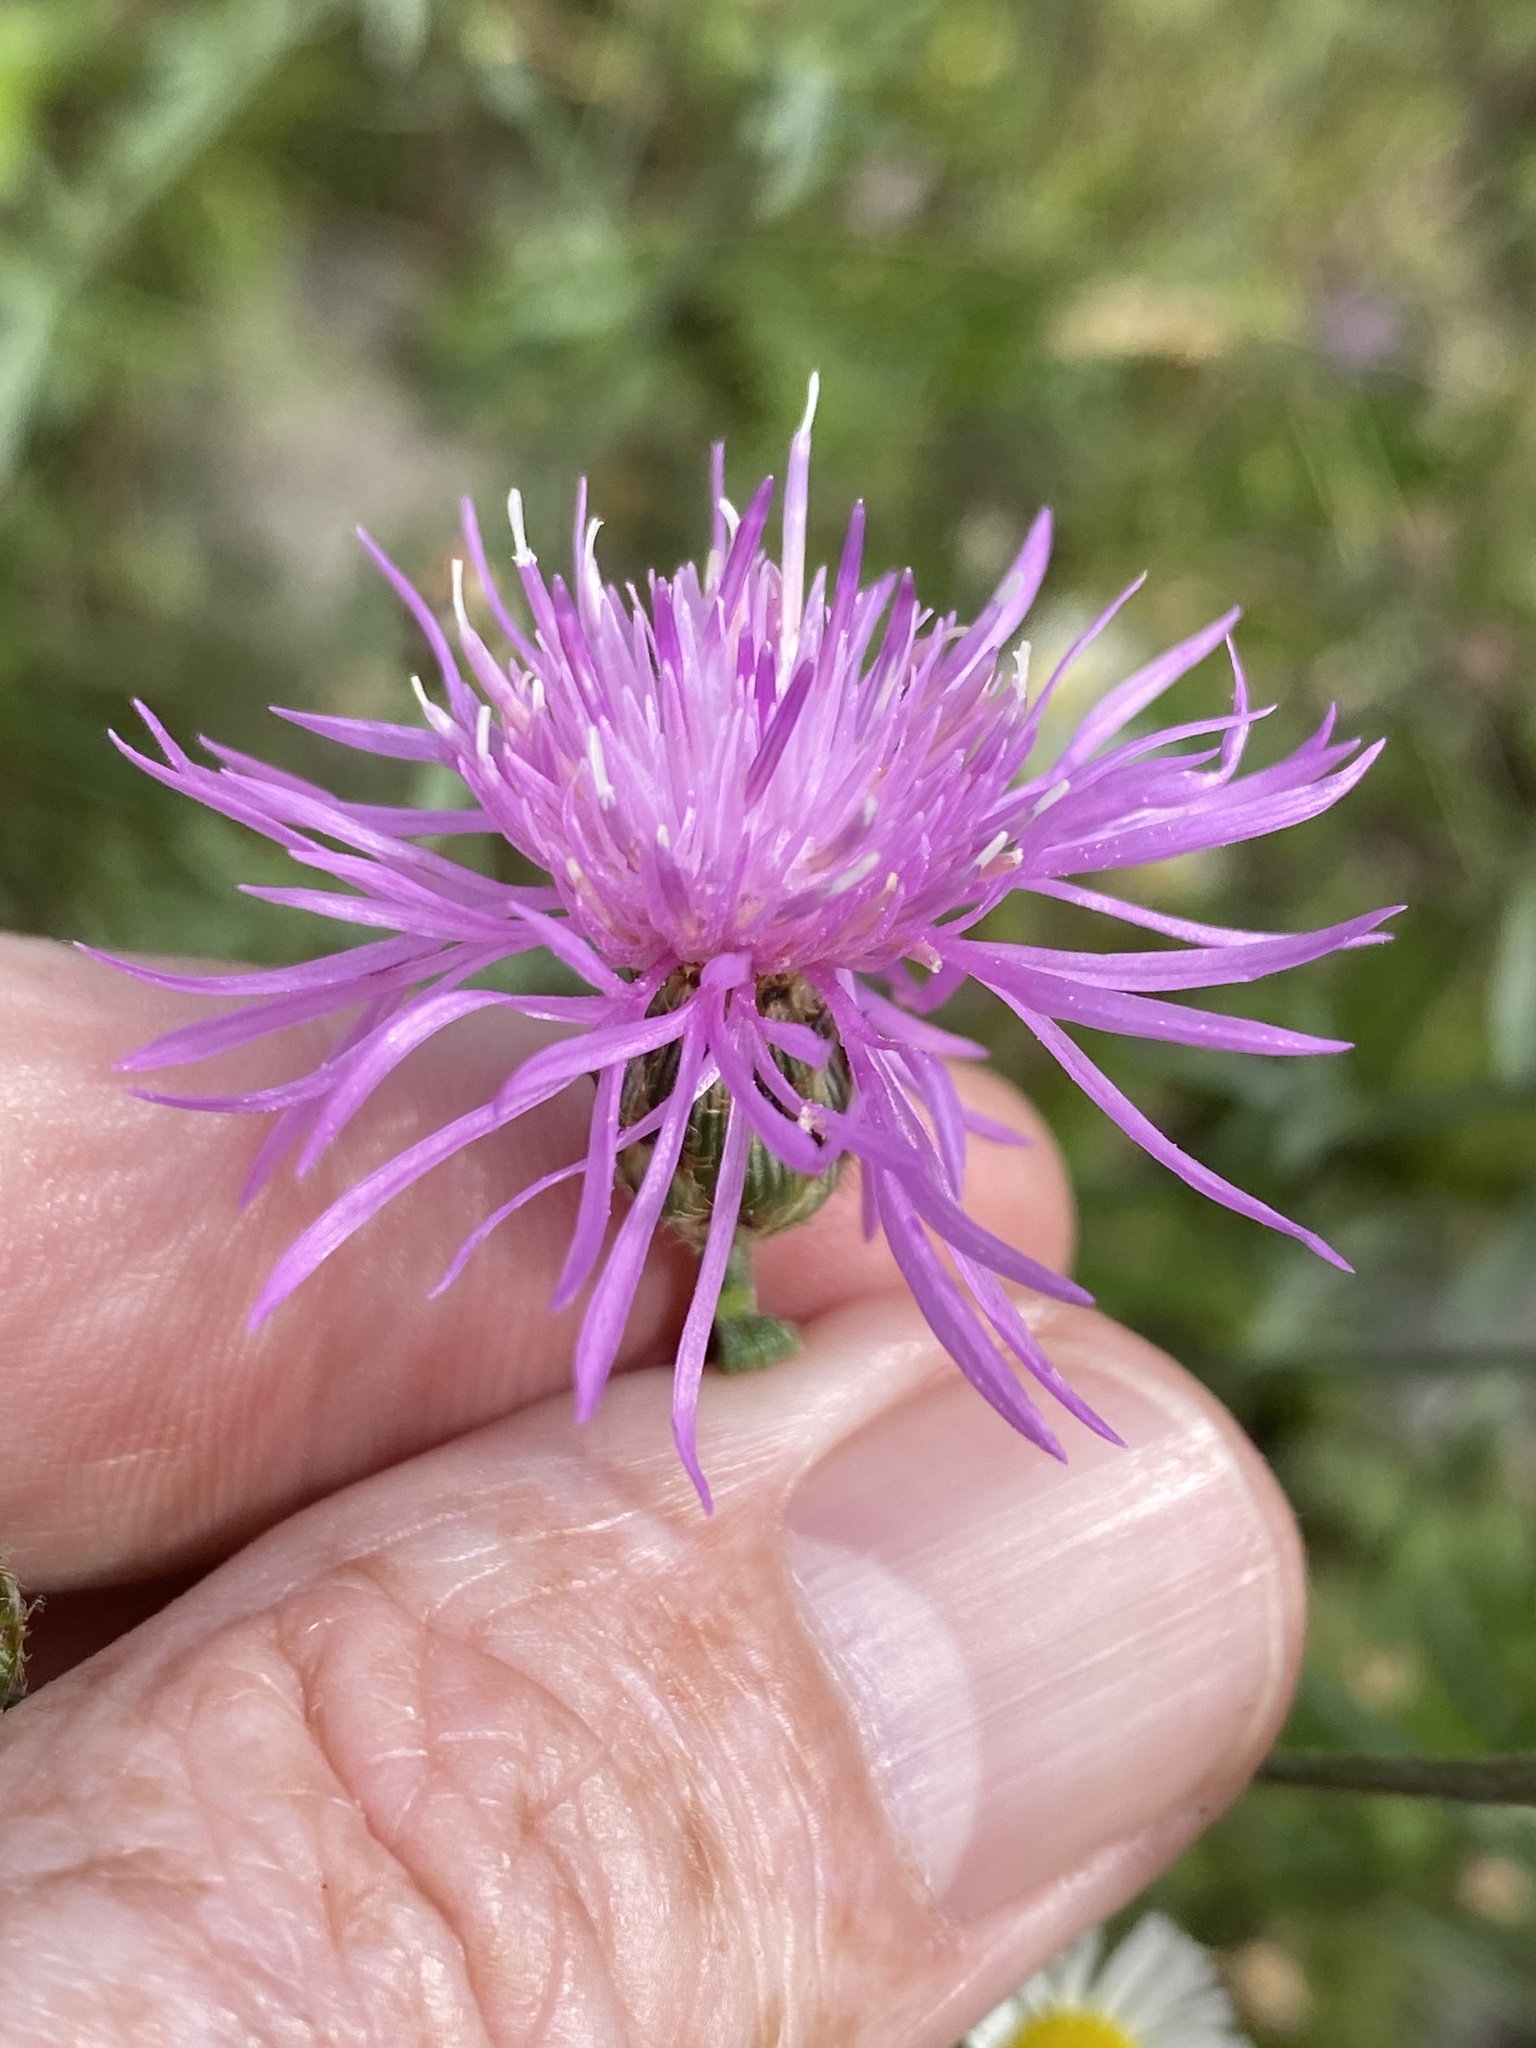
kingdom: Plantae
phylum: Tracheophyta
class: Magnoliopsida
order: Asterales
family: Asteraceae
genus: Centaurea
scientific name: Centaurea australis
